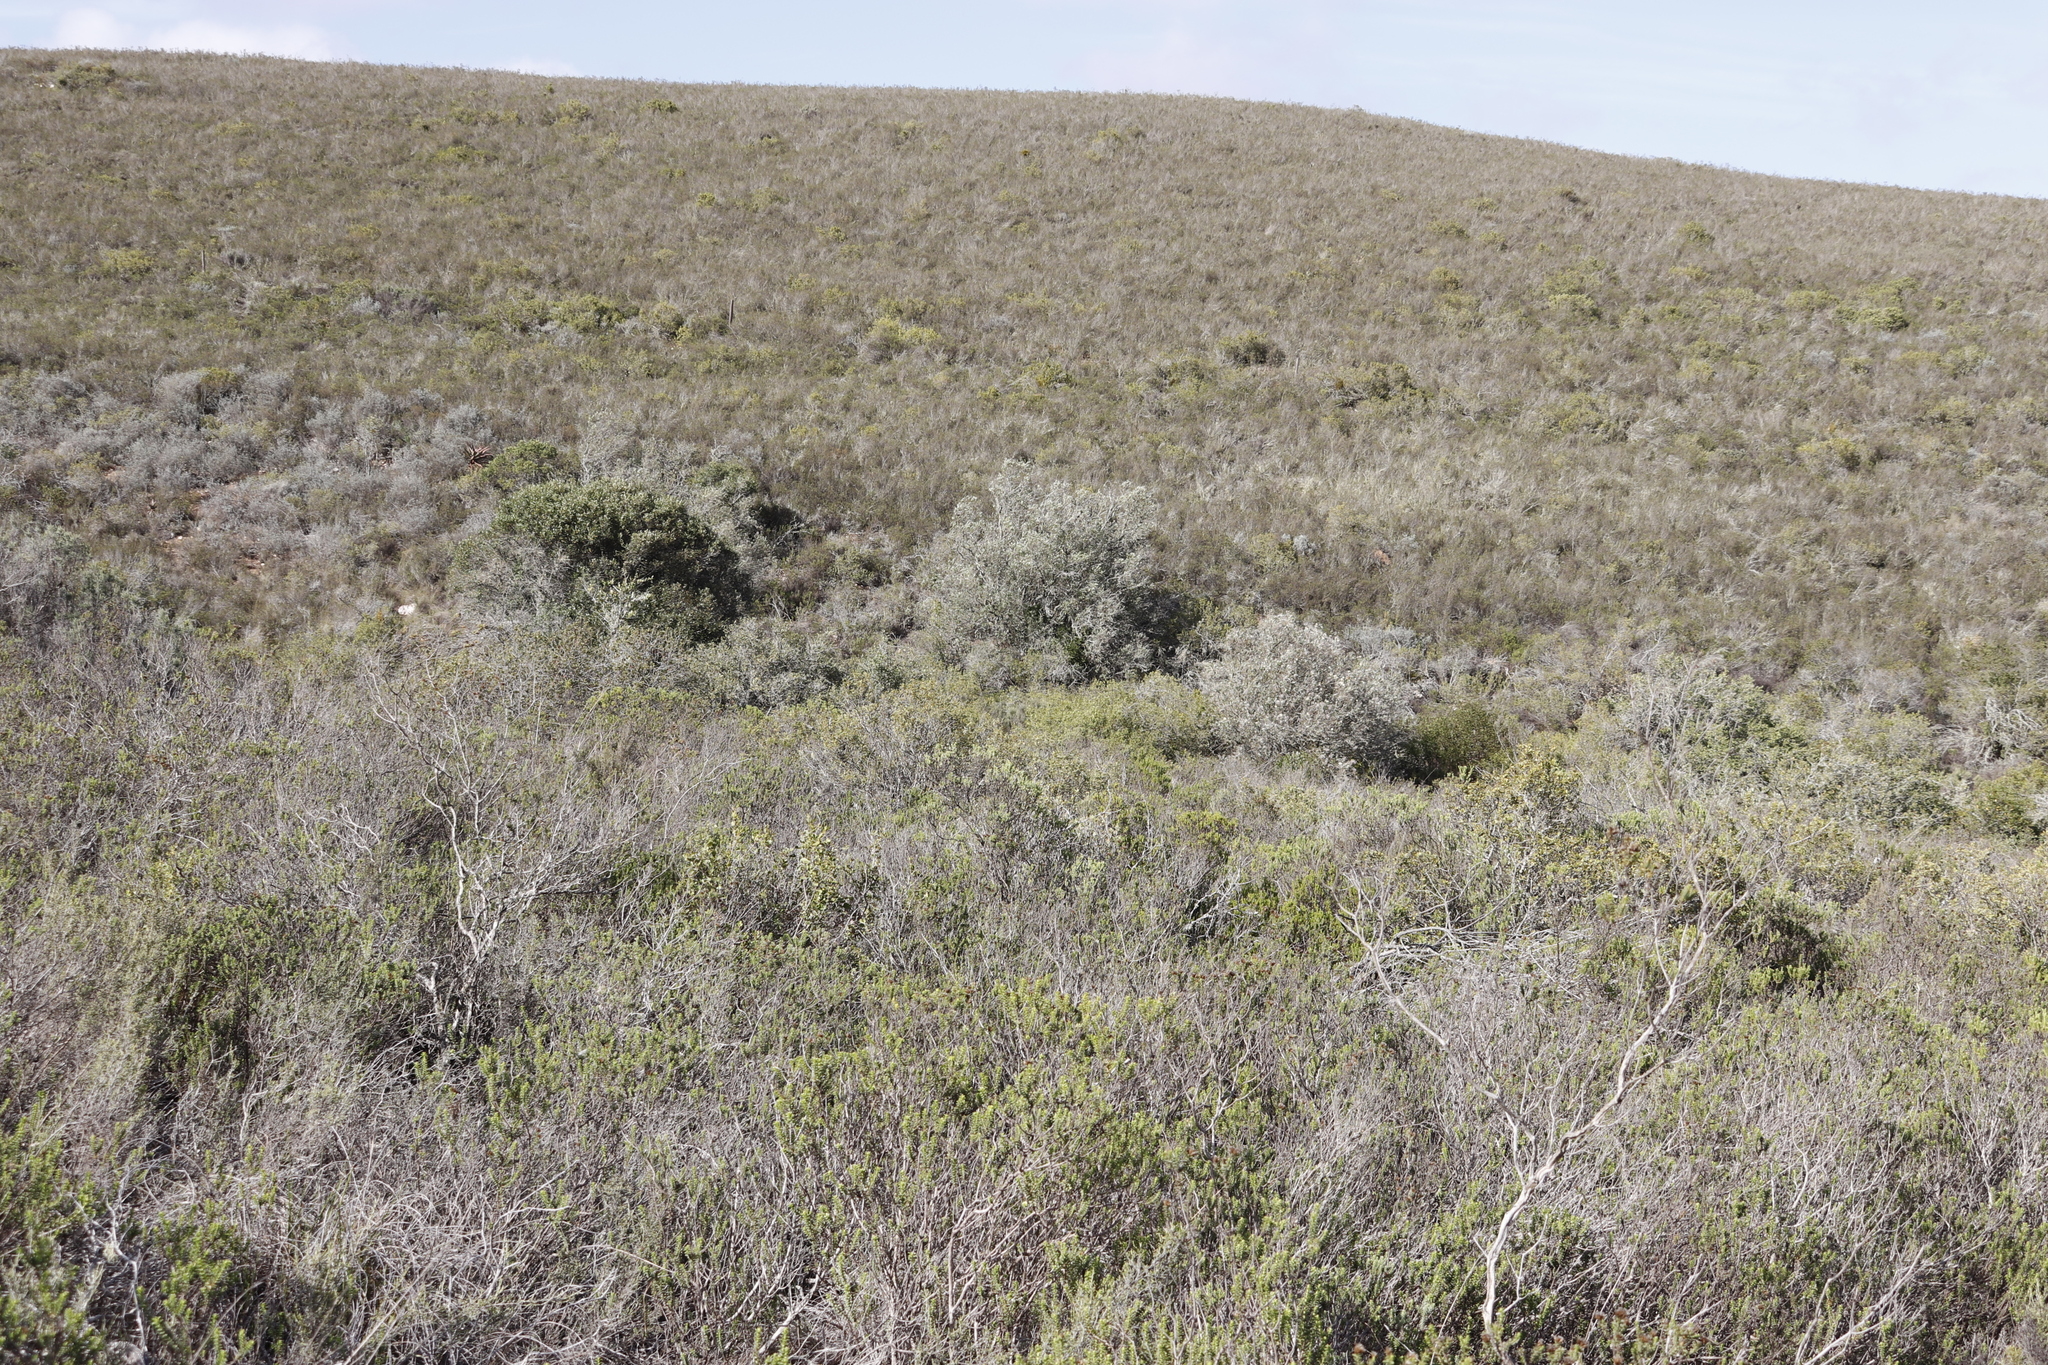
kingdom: Plantae
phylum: Tracheophyta
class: Magnoliopsida
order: Lamiales
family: Scrophulariaceae
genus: Buddleja
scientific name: Buddleja saligna
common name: False olive
